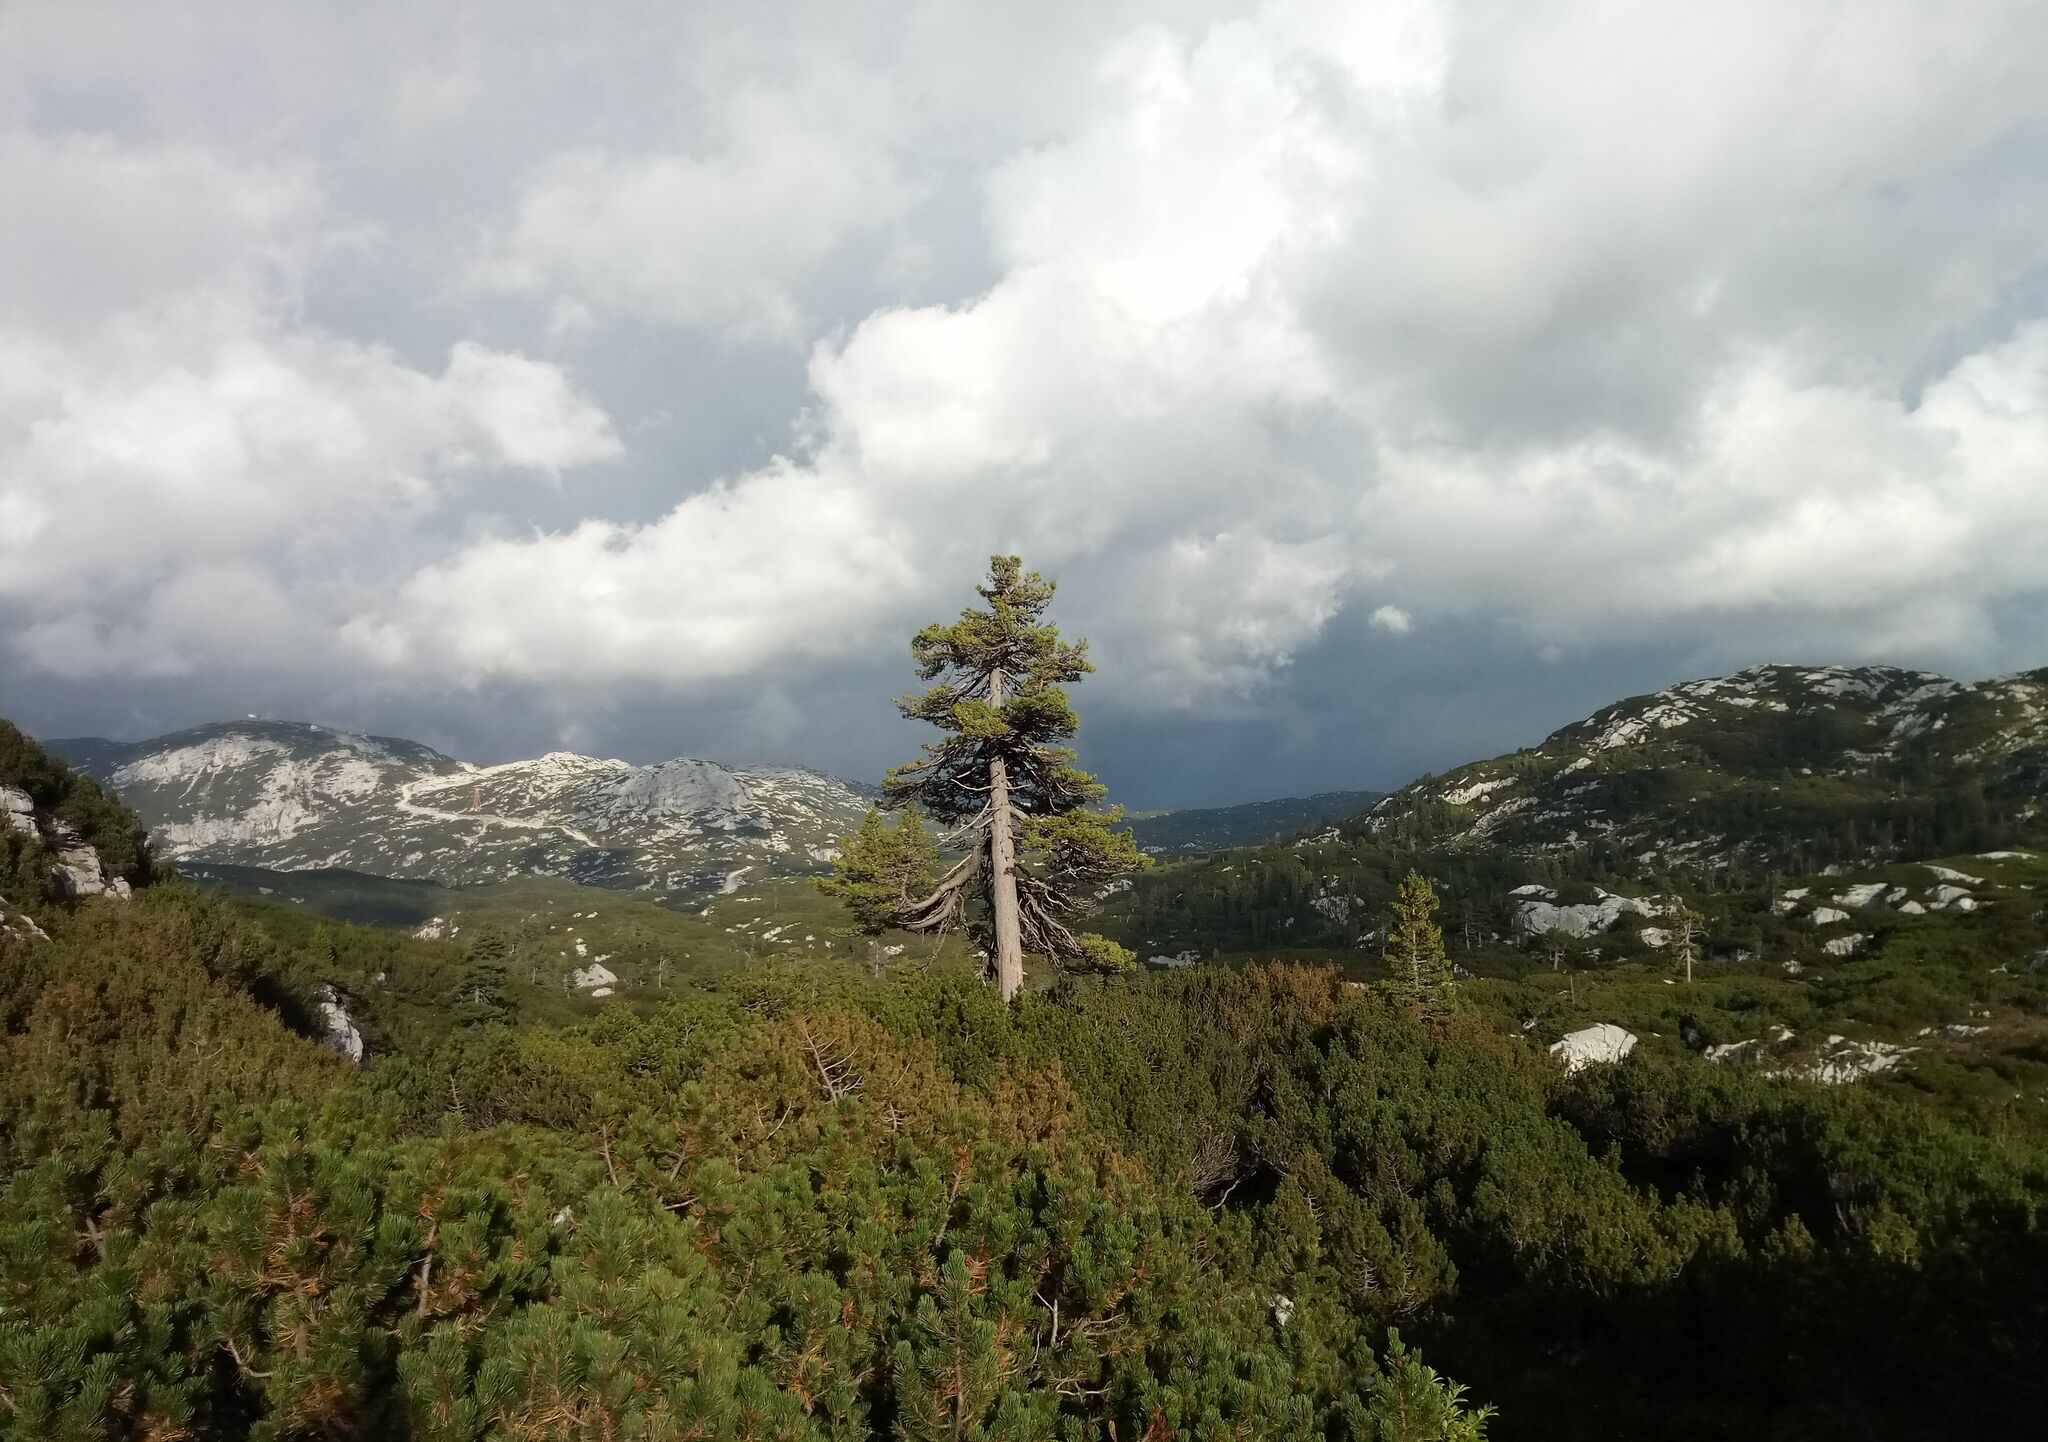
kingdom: Plantae
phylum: Tracheophyta
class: Pinopsida
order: Pinales
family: Pinaceae
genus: Pinus
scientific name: Pinus cembra
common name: Arolla pine
